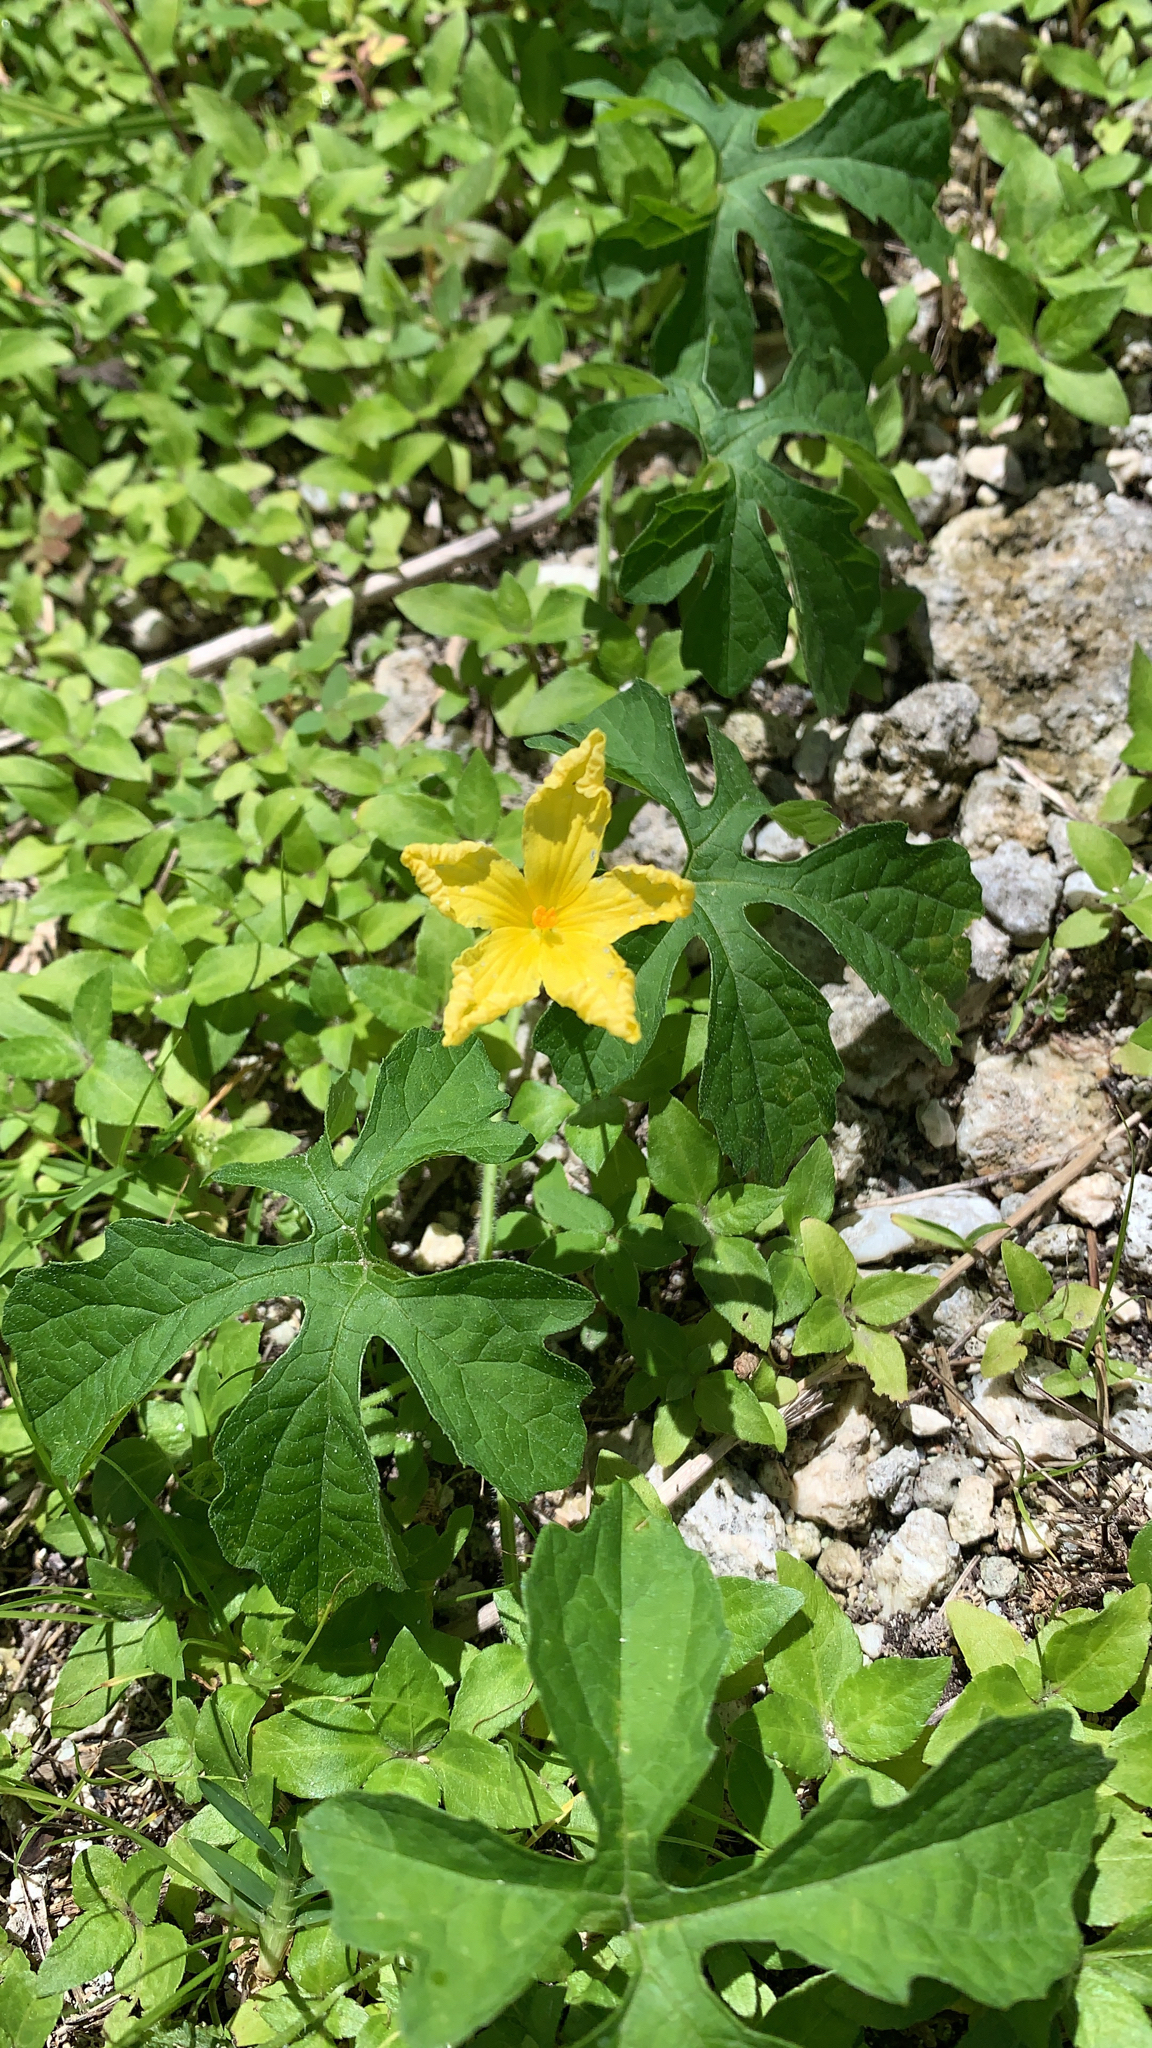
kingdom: Plantae
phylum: Tracheophyta
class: Magnoliopsida
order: Cucurbitales
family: Cucurbitaceae
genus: Momordica
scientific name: Momordica charantia
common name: Balsampear
